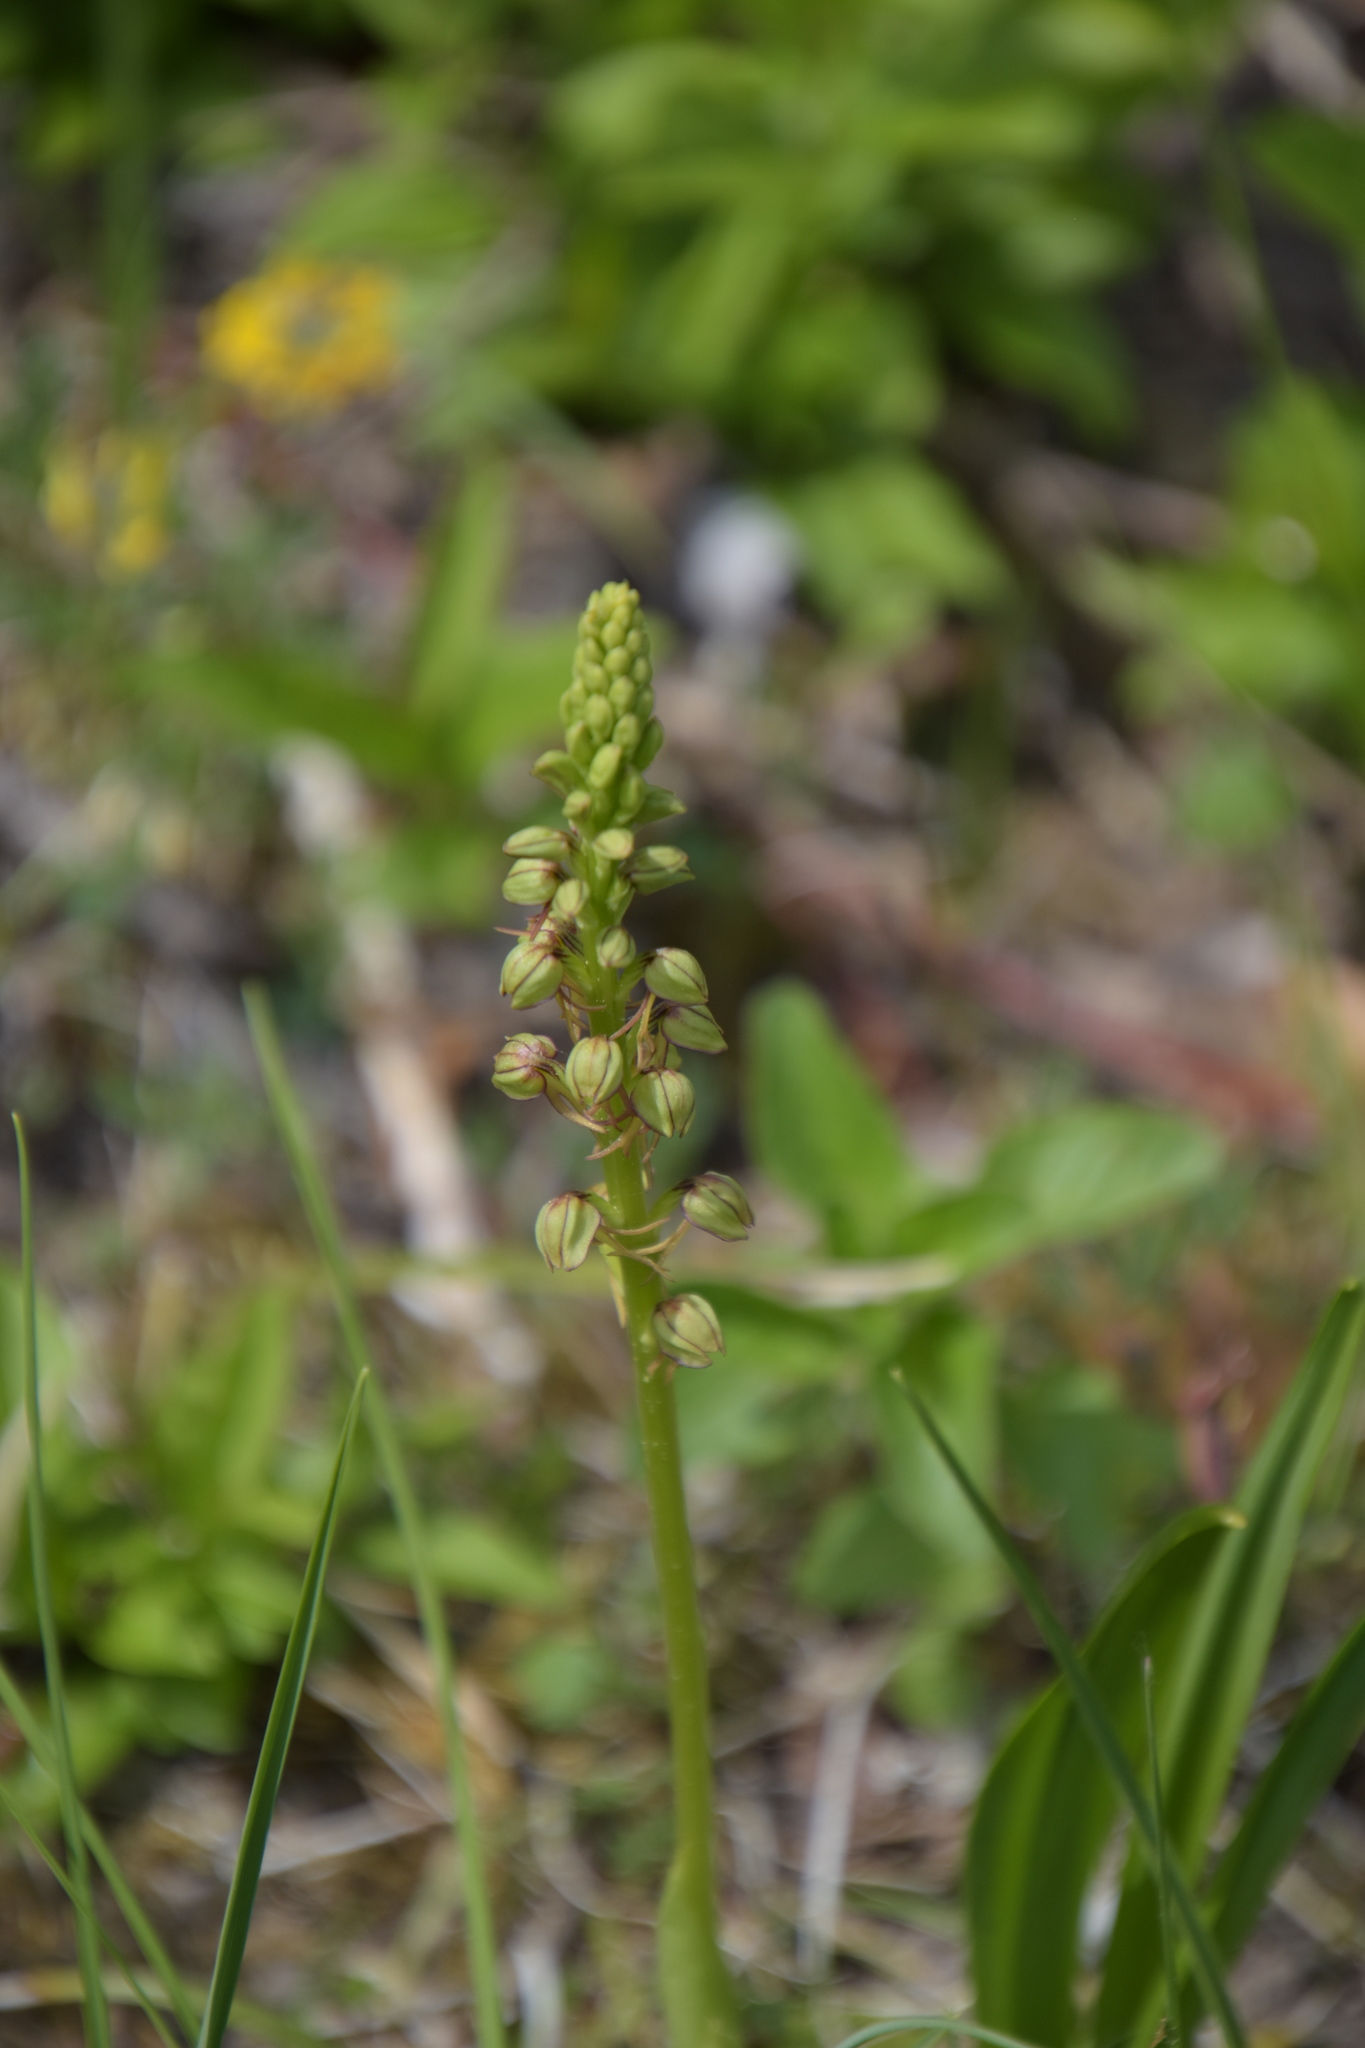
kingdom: Plantae
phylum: Tracheophyta
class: Liliopsida
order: Asparagales
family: Orchidaceae
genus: Orchis
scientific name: Orchis anthropophora
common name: Man orchid
